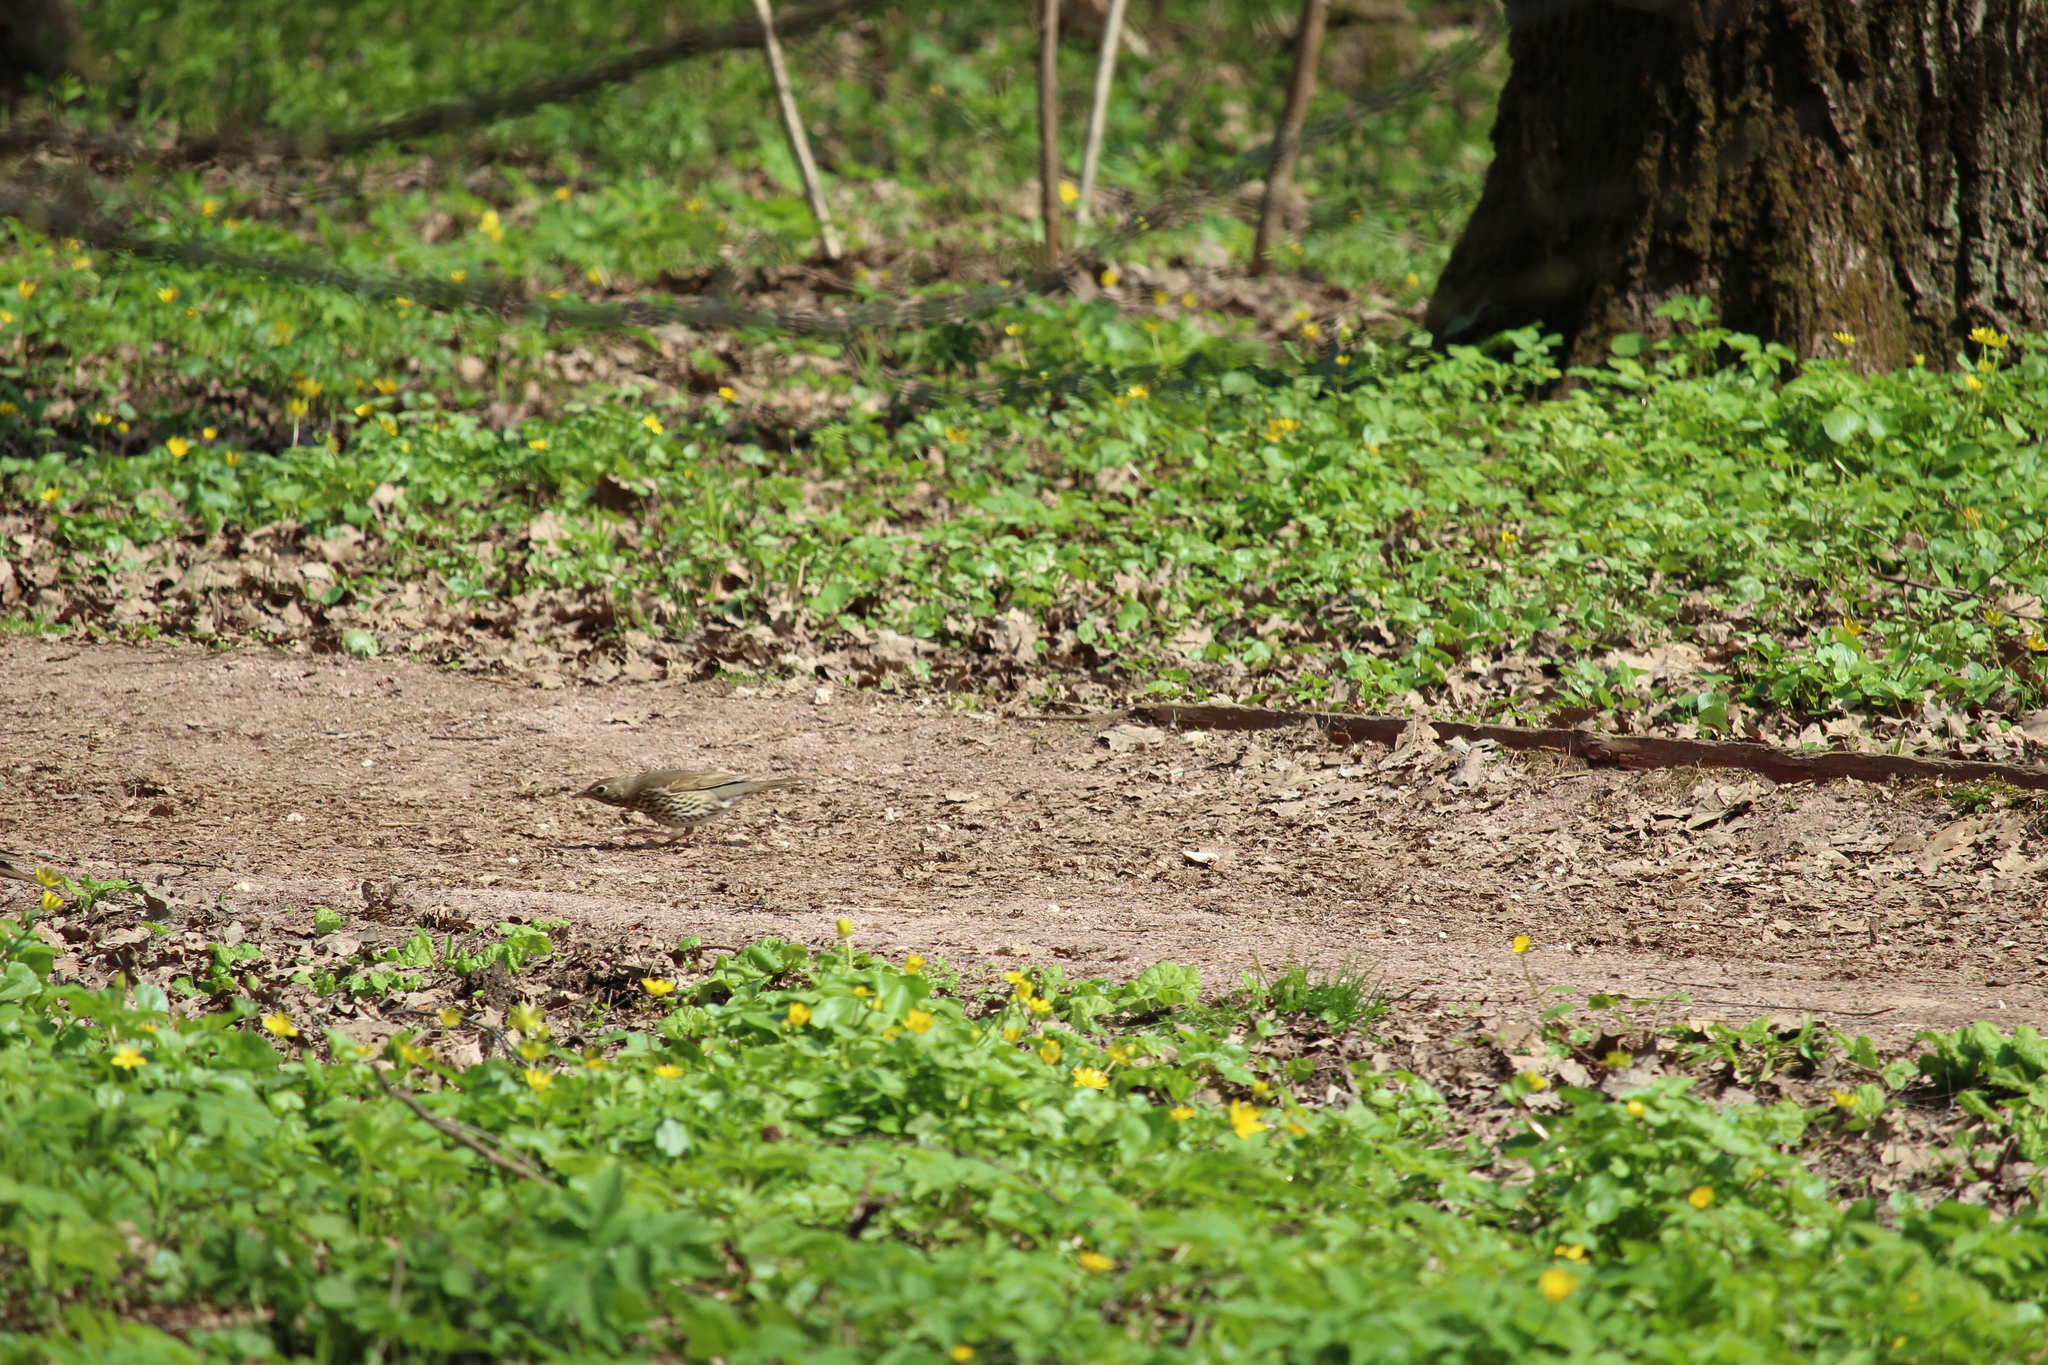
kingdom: Animalia
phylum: Chordata
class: Aves
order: Passeriformes
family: Turdidae
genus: Turdus
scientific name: Turdus philomelos
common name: Song thrush
